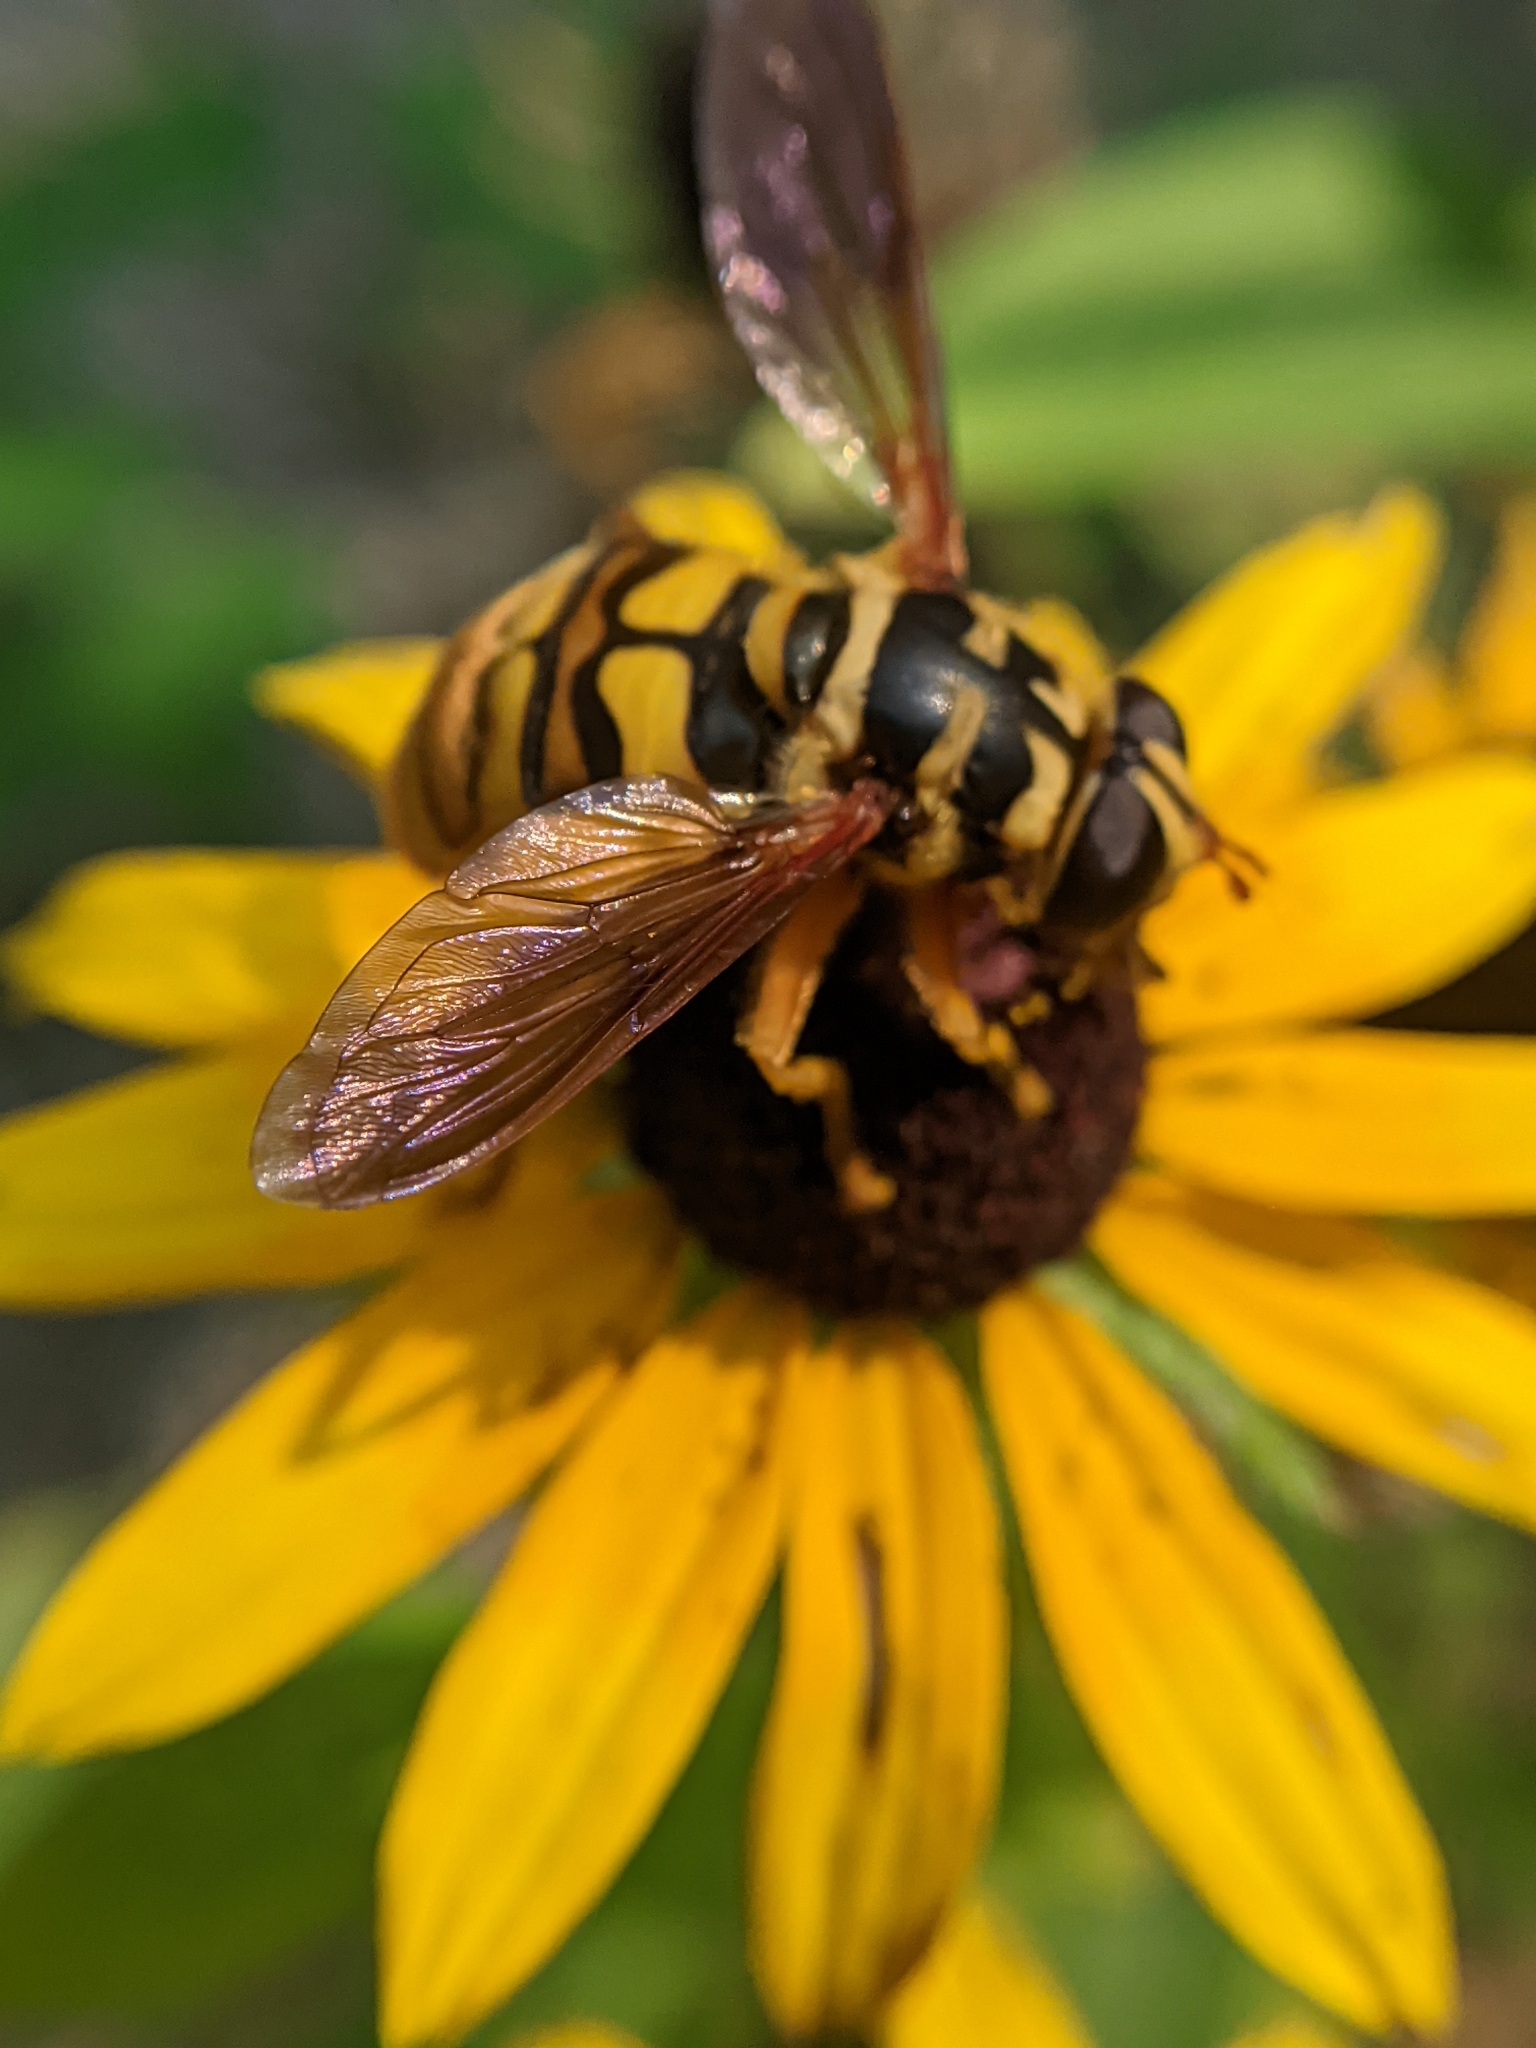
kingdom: Animalia
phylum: Arthropoda
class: Insecta
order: Diptera
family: Syrphidae
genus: Milesia
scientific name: Milesia virginiensis
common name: Virginia giant
